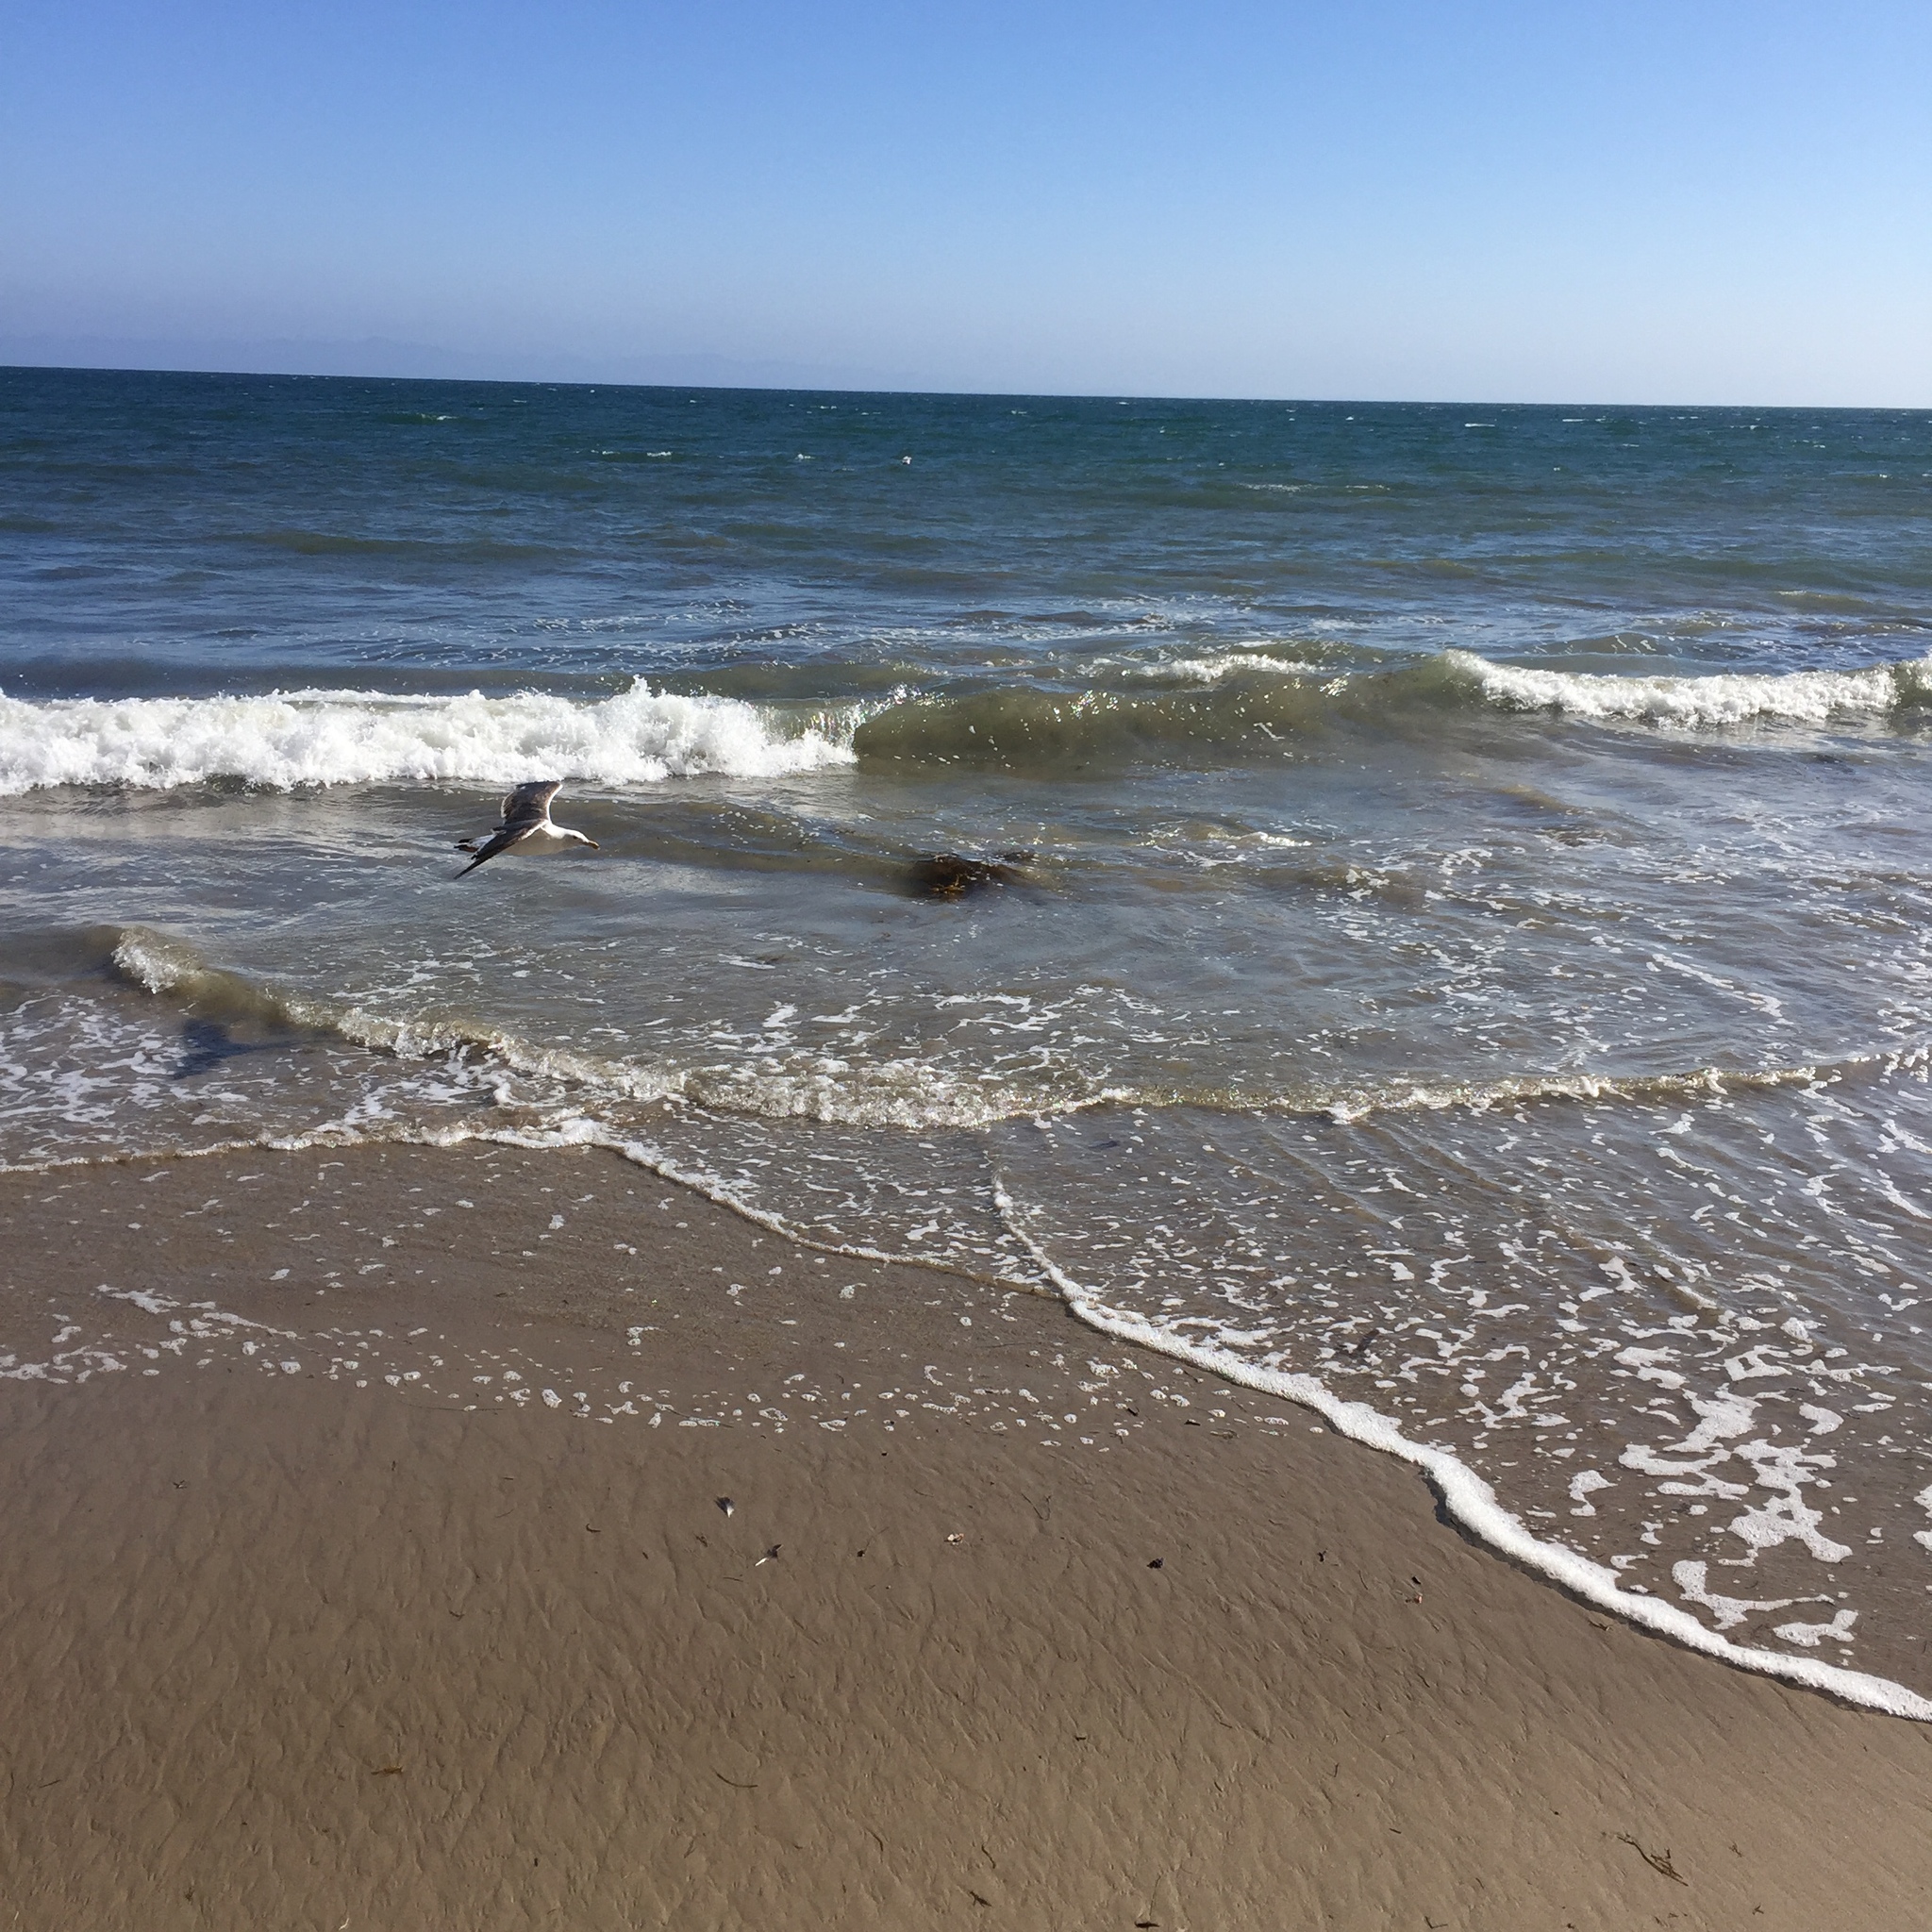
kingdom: Animalia
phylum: Chordata
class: Aves
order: Charadriiformes
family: Laridae
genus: Larus
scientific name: Larus occidentalis
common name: Western gull
